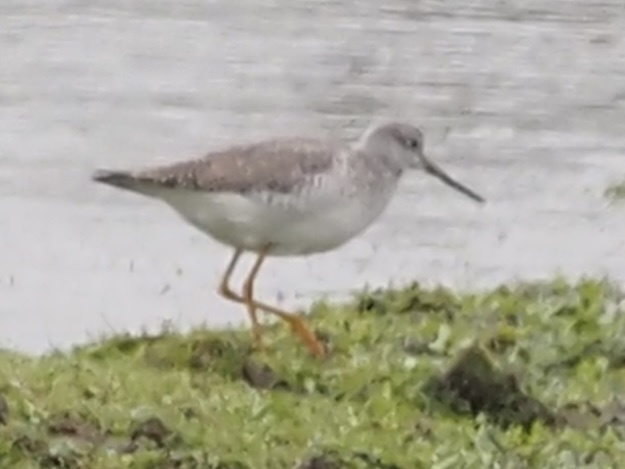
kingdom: Animalia
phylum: Chordata
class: Aves
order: Charadriiformes
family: Scolopacidae
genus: Tringa
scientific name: Tringa melanoleuca
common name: Greater yellowlegs
